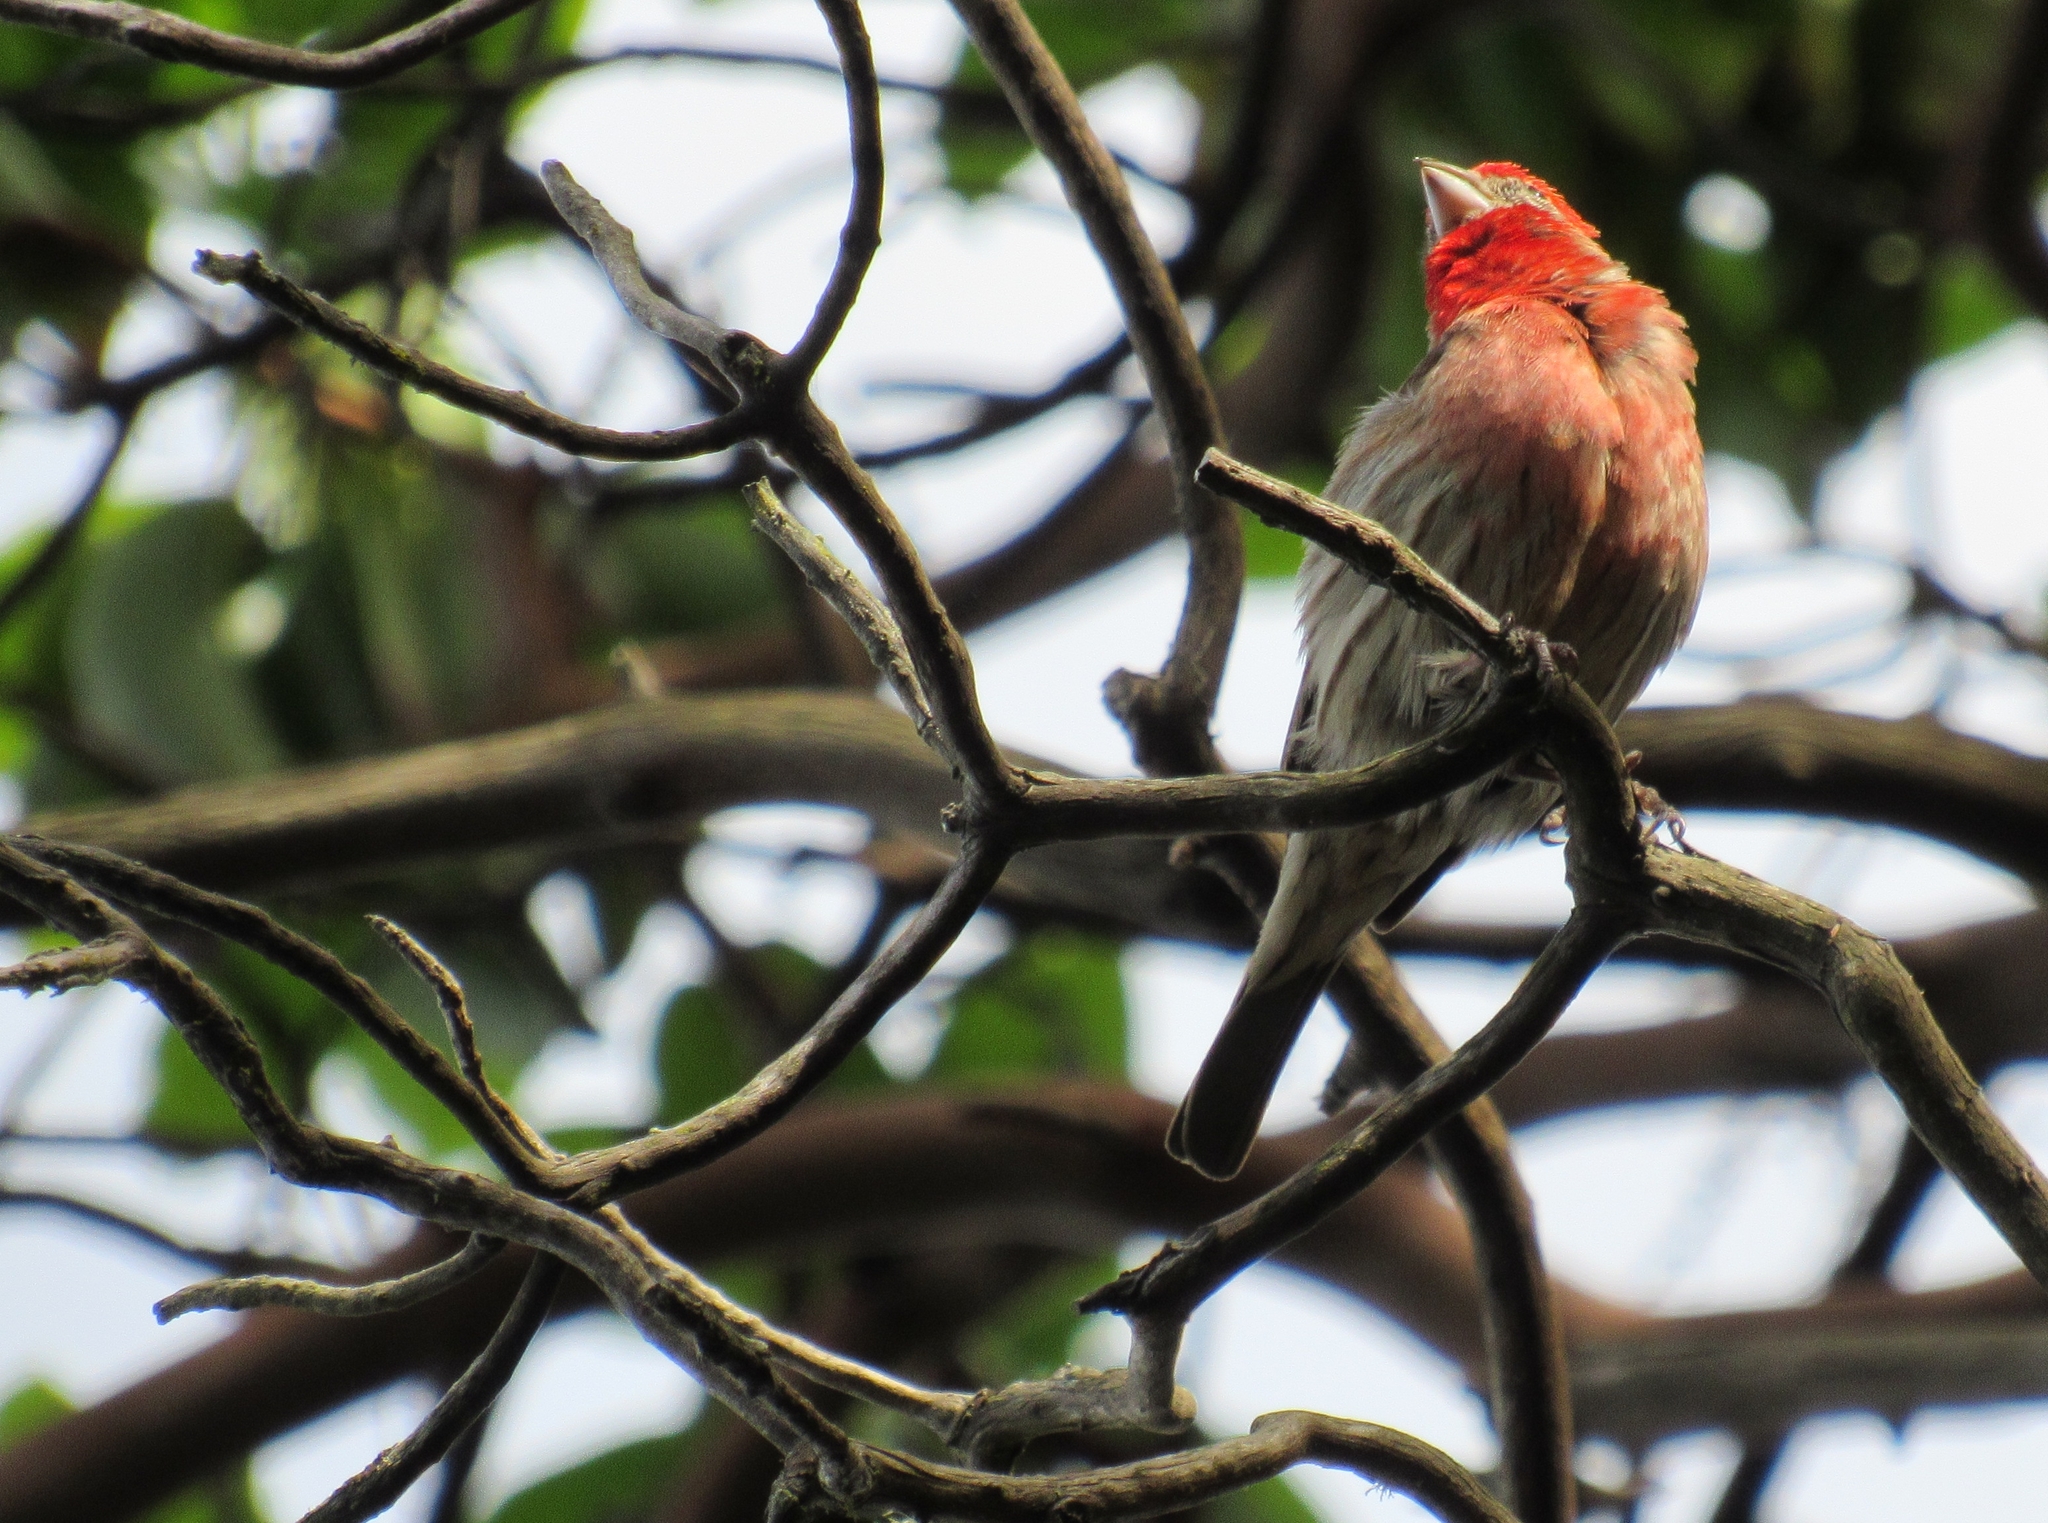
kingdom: Animalia
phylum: Chordata
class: Aves
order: Passeriformes
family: Fringillidae
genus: Haemorhous
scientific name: Haemorhous mexicanus
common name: House finch
